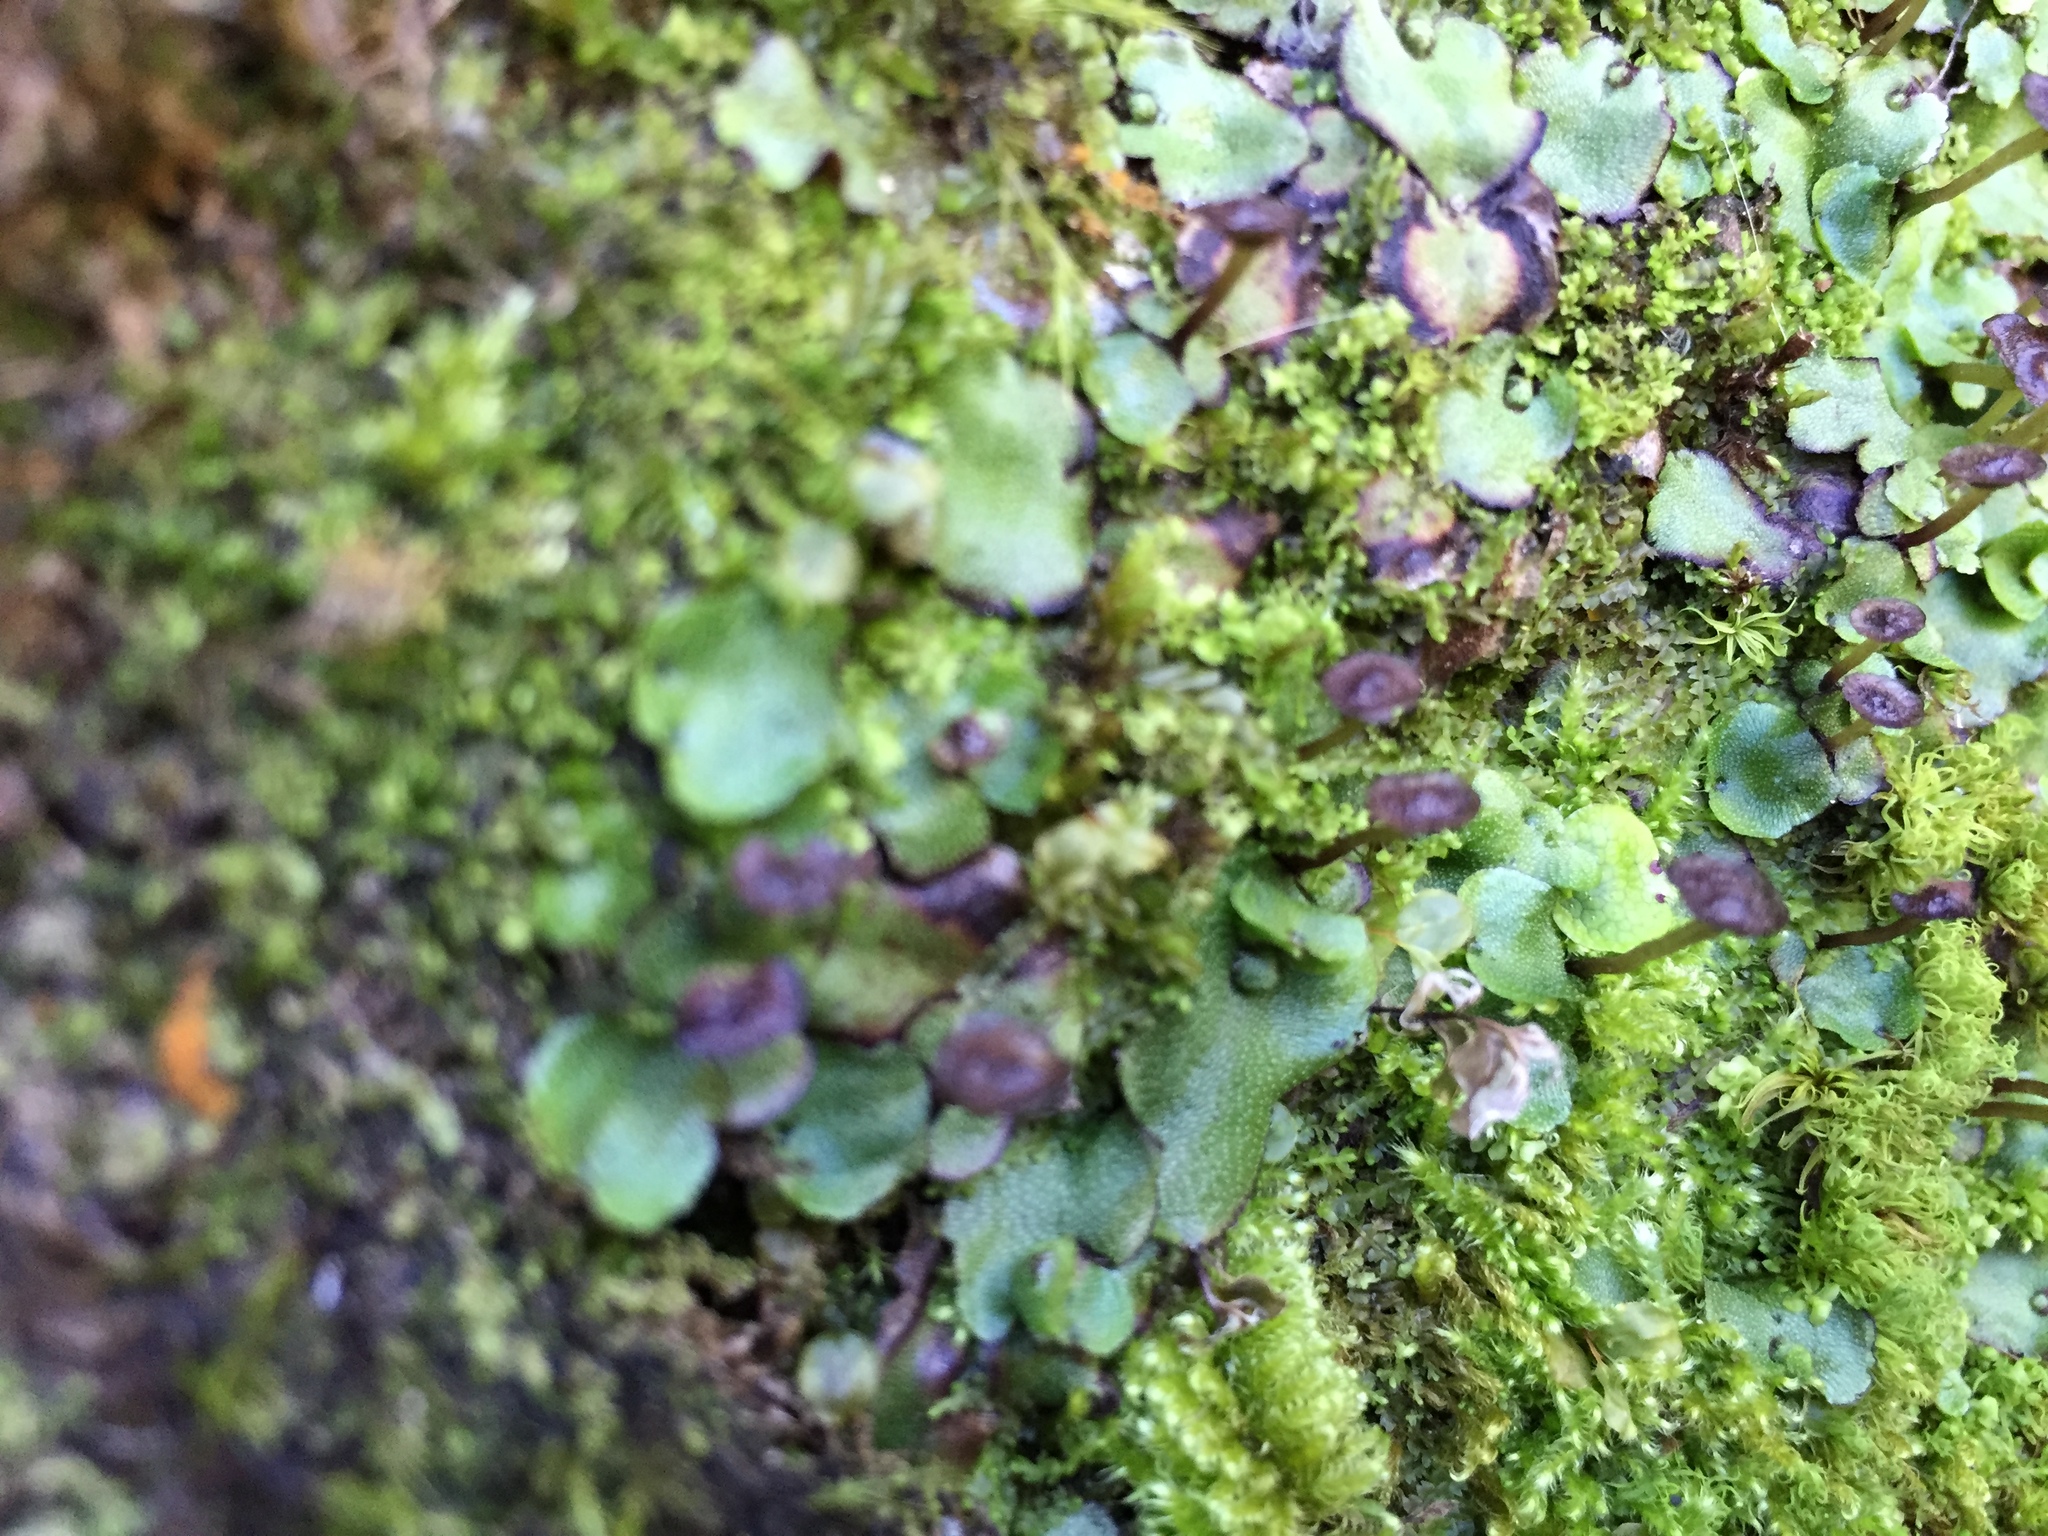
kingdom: Plantae
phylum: Marchantiophyta
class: Marchantiopsida
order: Marchantiales
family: Marchantiaceae
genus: Marchantia
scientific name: Marchantia quadrata
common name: Narrow mushroom-headed liverwort
